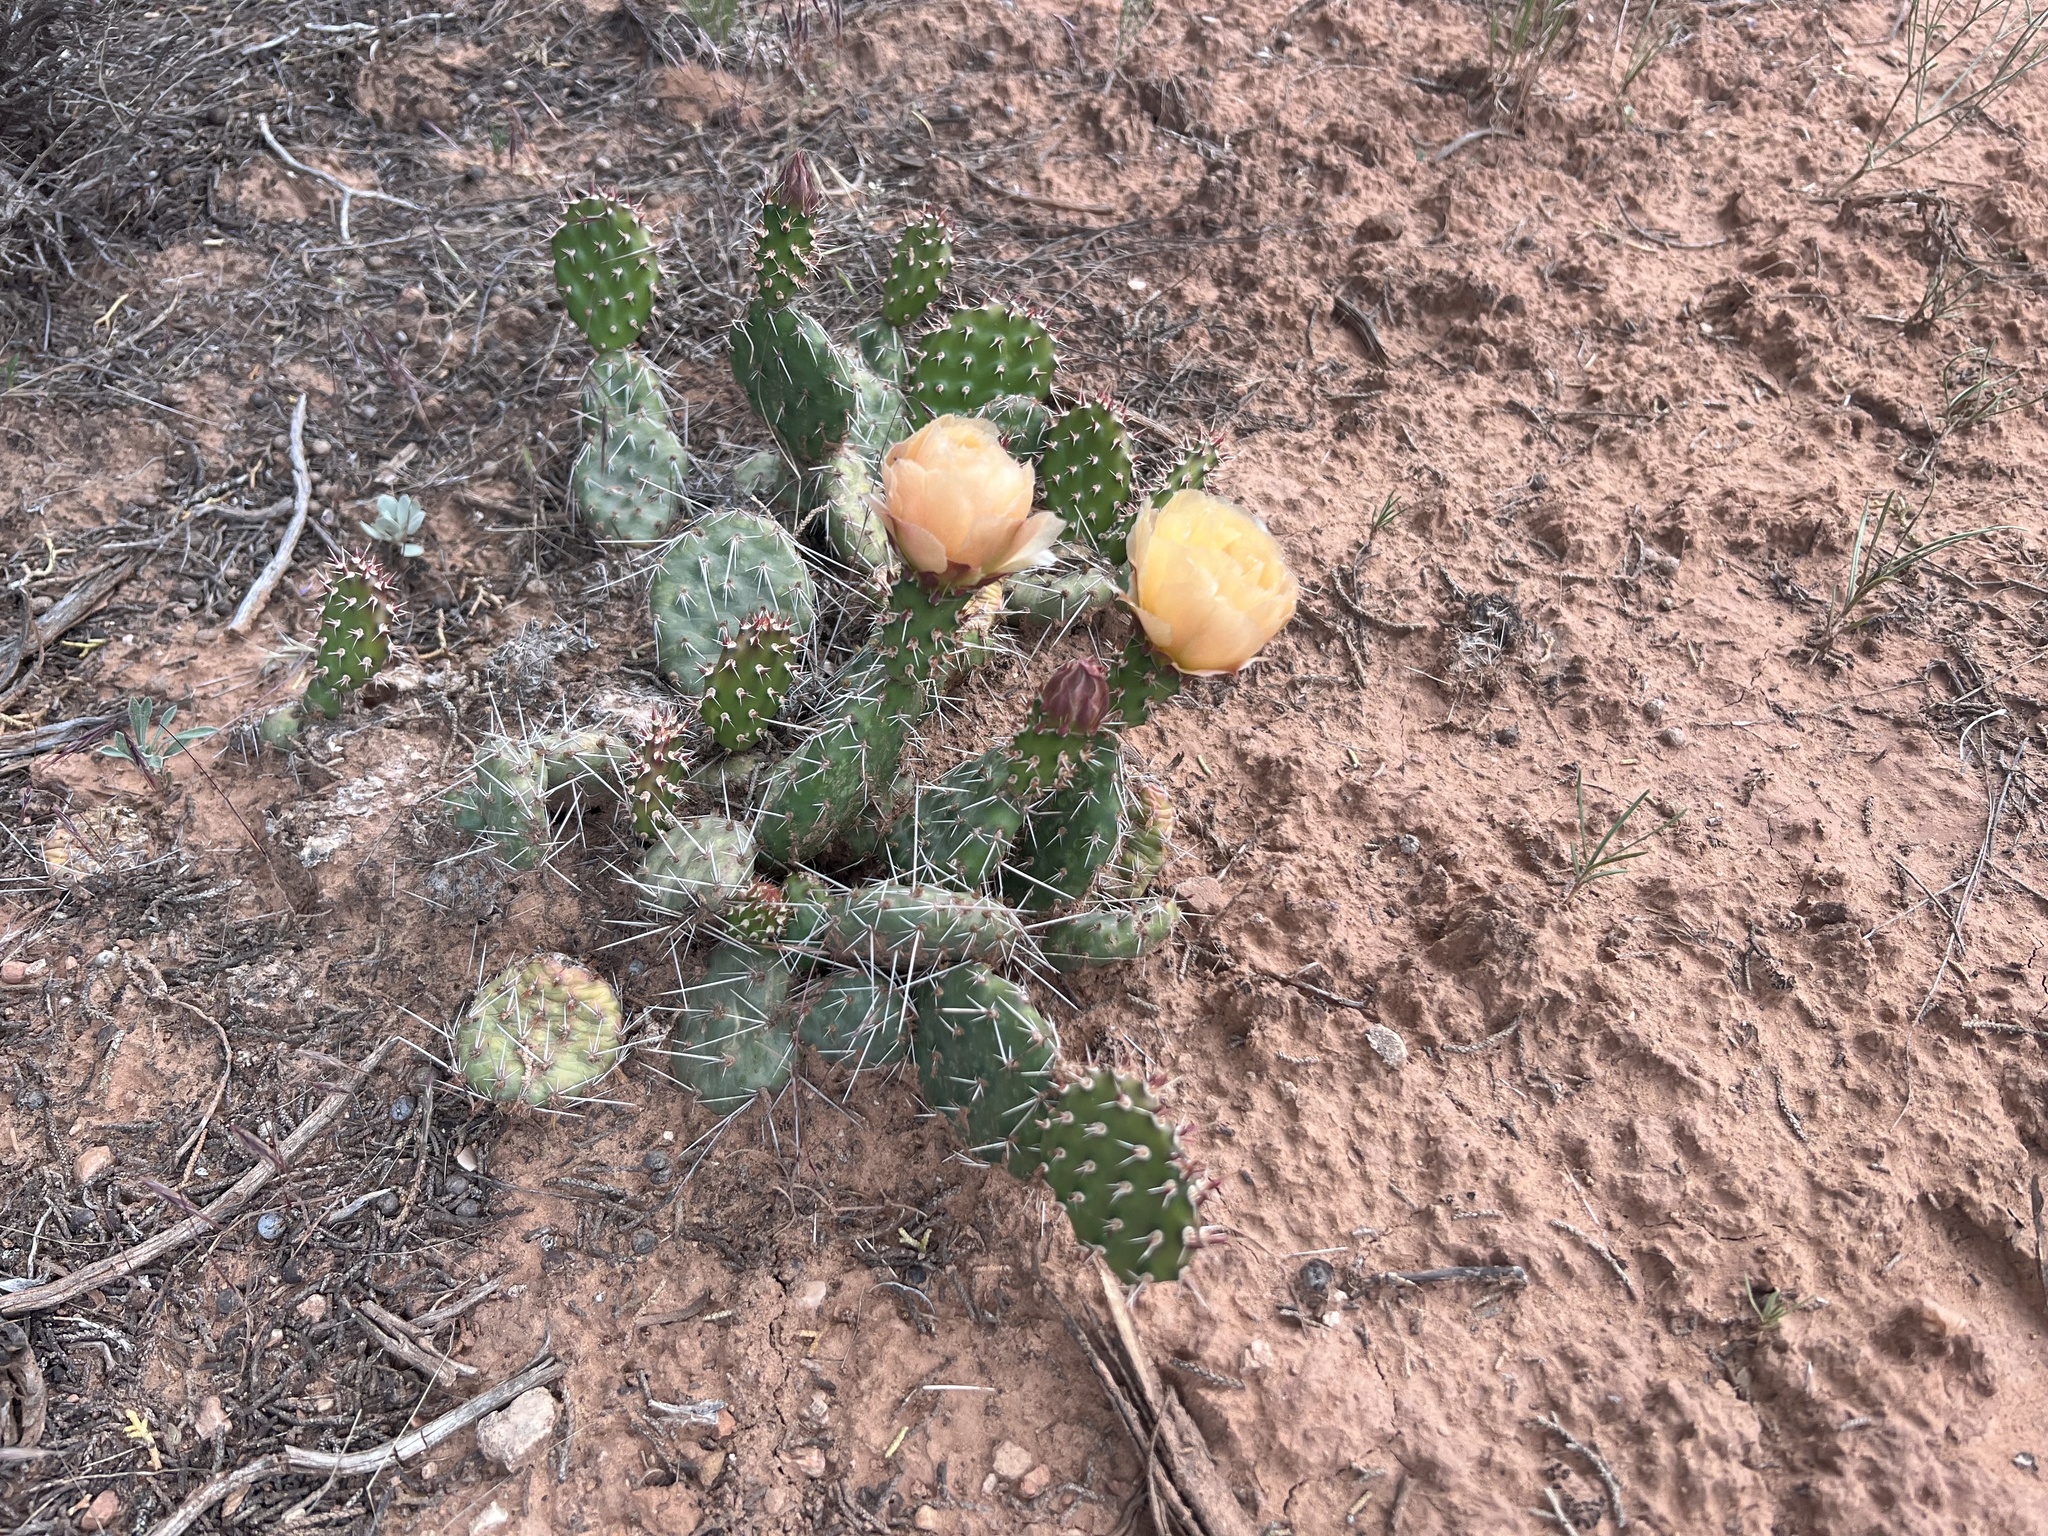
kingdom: Plantae
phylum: Tracheophyta
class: Magnoliopsida
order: Caryophyllales
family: Cactaceae
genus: Opuntia
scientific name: Opuntia polyacantha
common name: Plains prickly-pear
